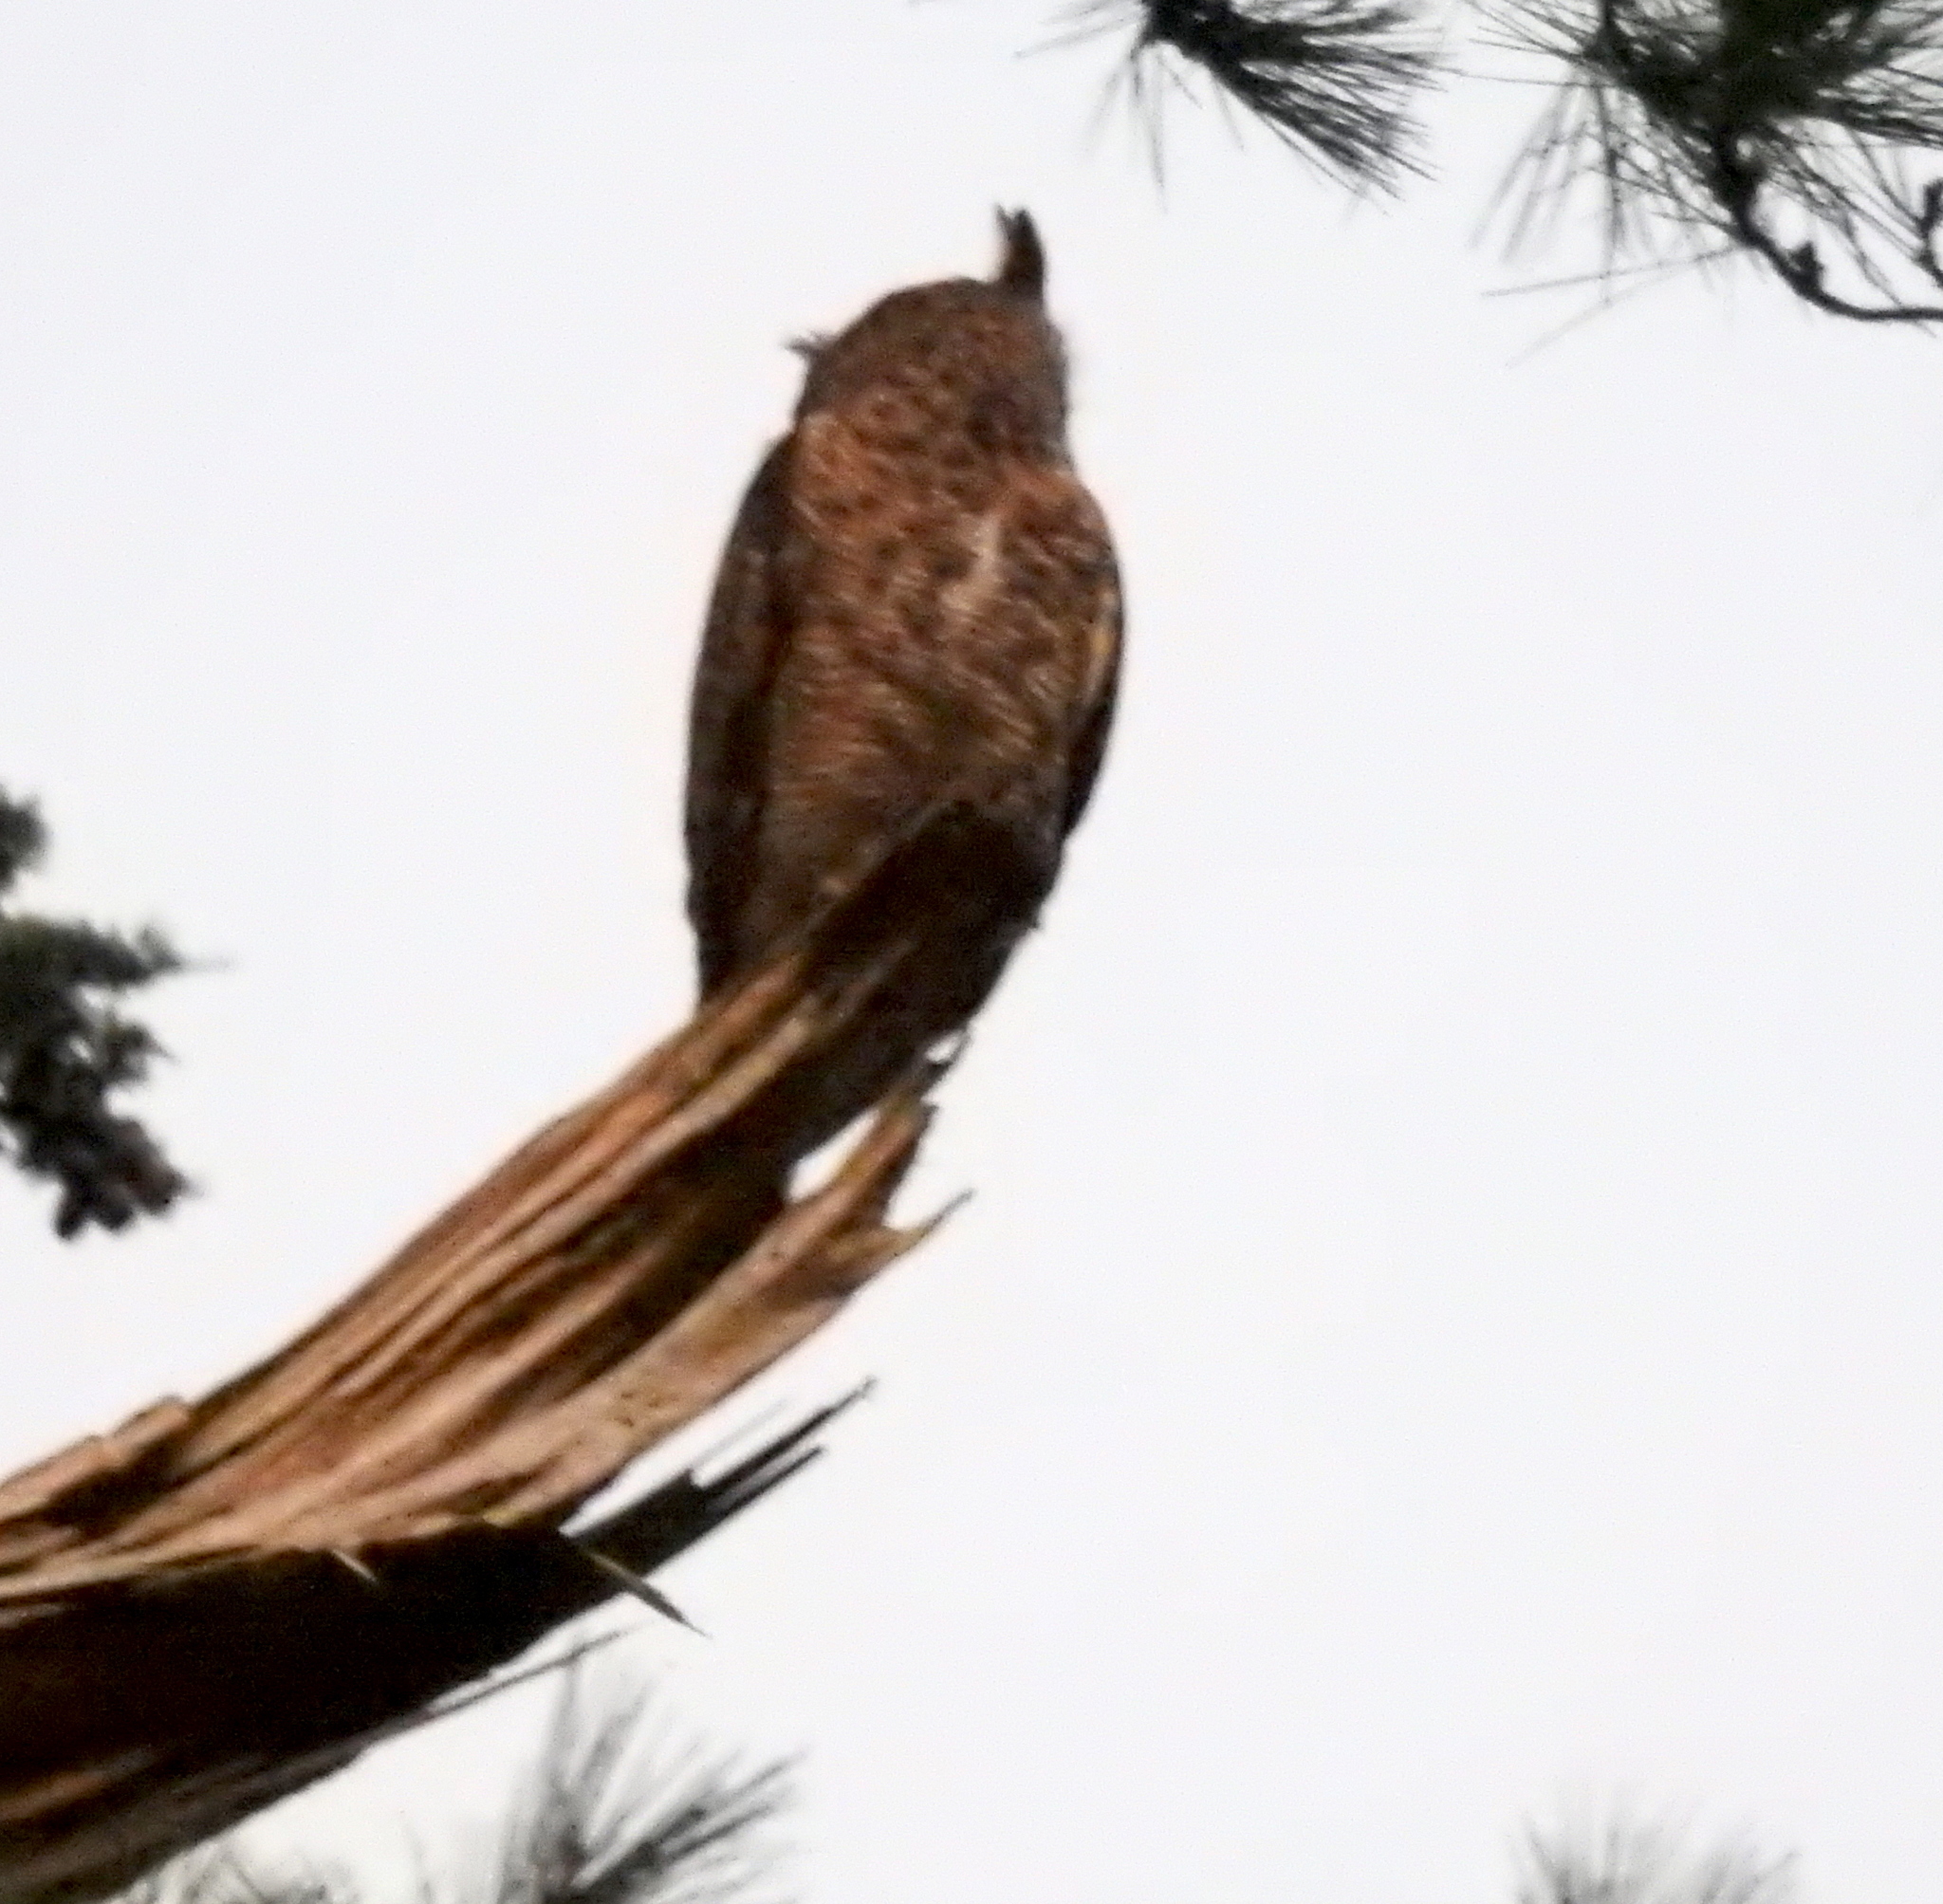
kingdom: Animalia
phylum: Chordata
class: Aves
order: Strigiformes
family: Strigidae
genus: Bubo
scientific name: Bubo virginianus
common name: Great horned owl
